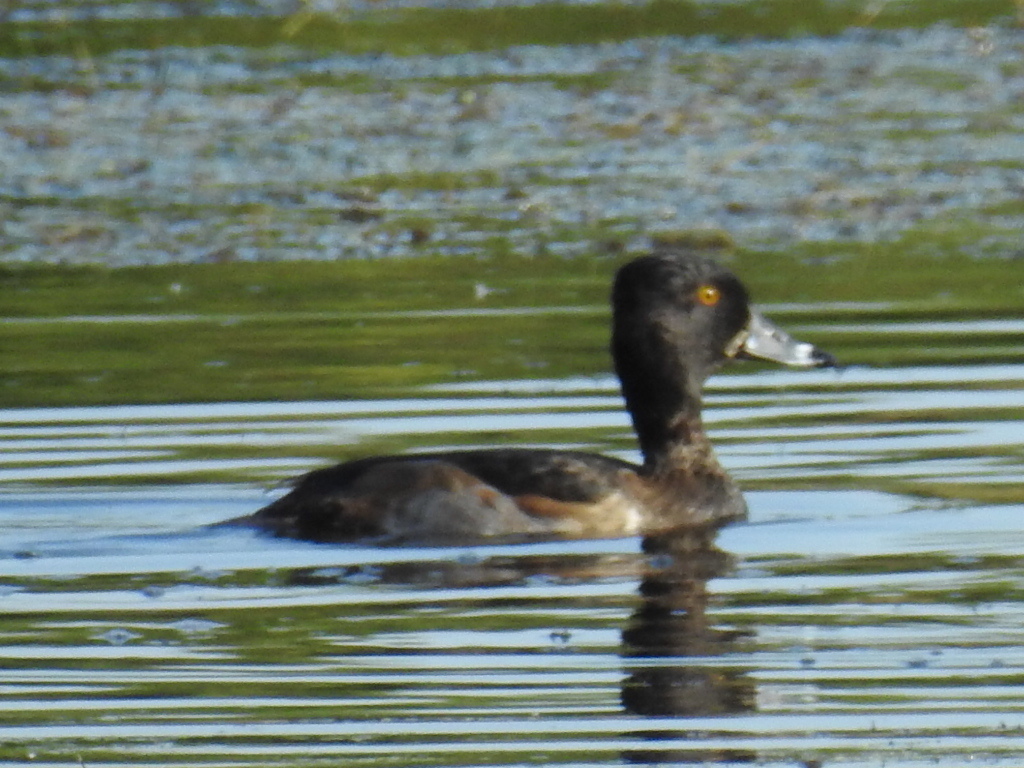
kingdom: Animalia
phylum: Chordata
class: Aves
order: Anseriformes
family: Anatidae
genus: Aythya
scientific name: Aythya collaris
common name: Ring-necked duck
